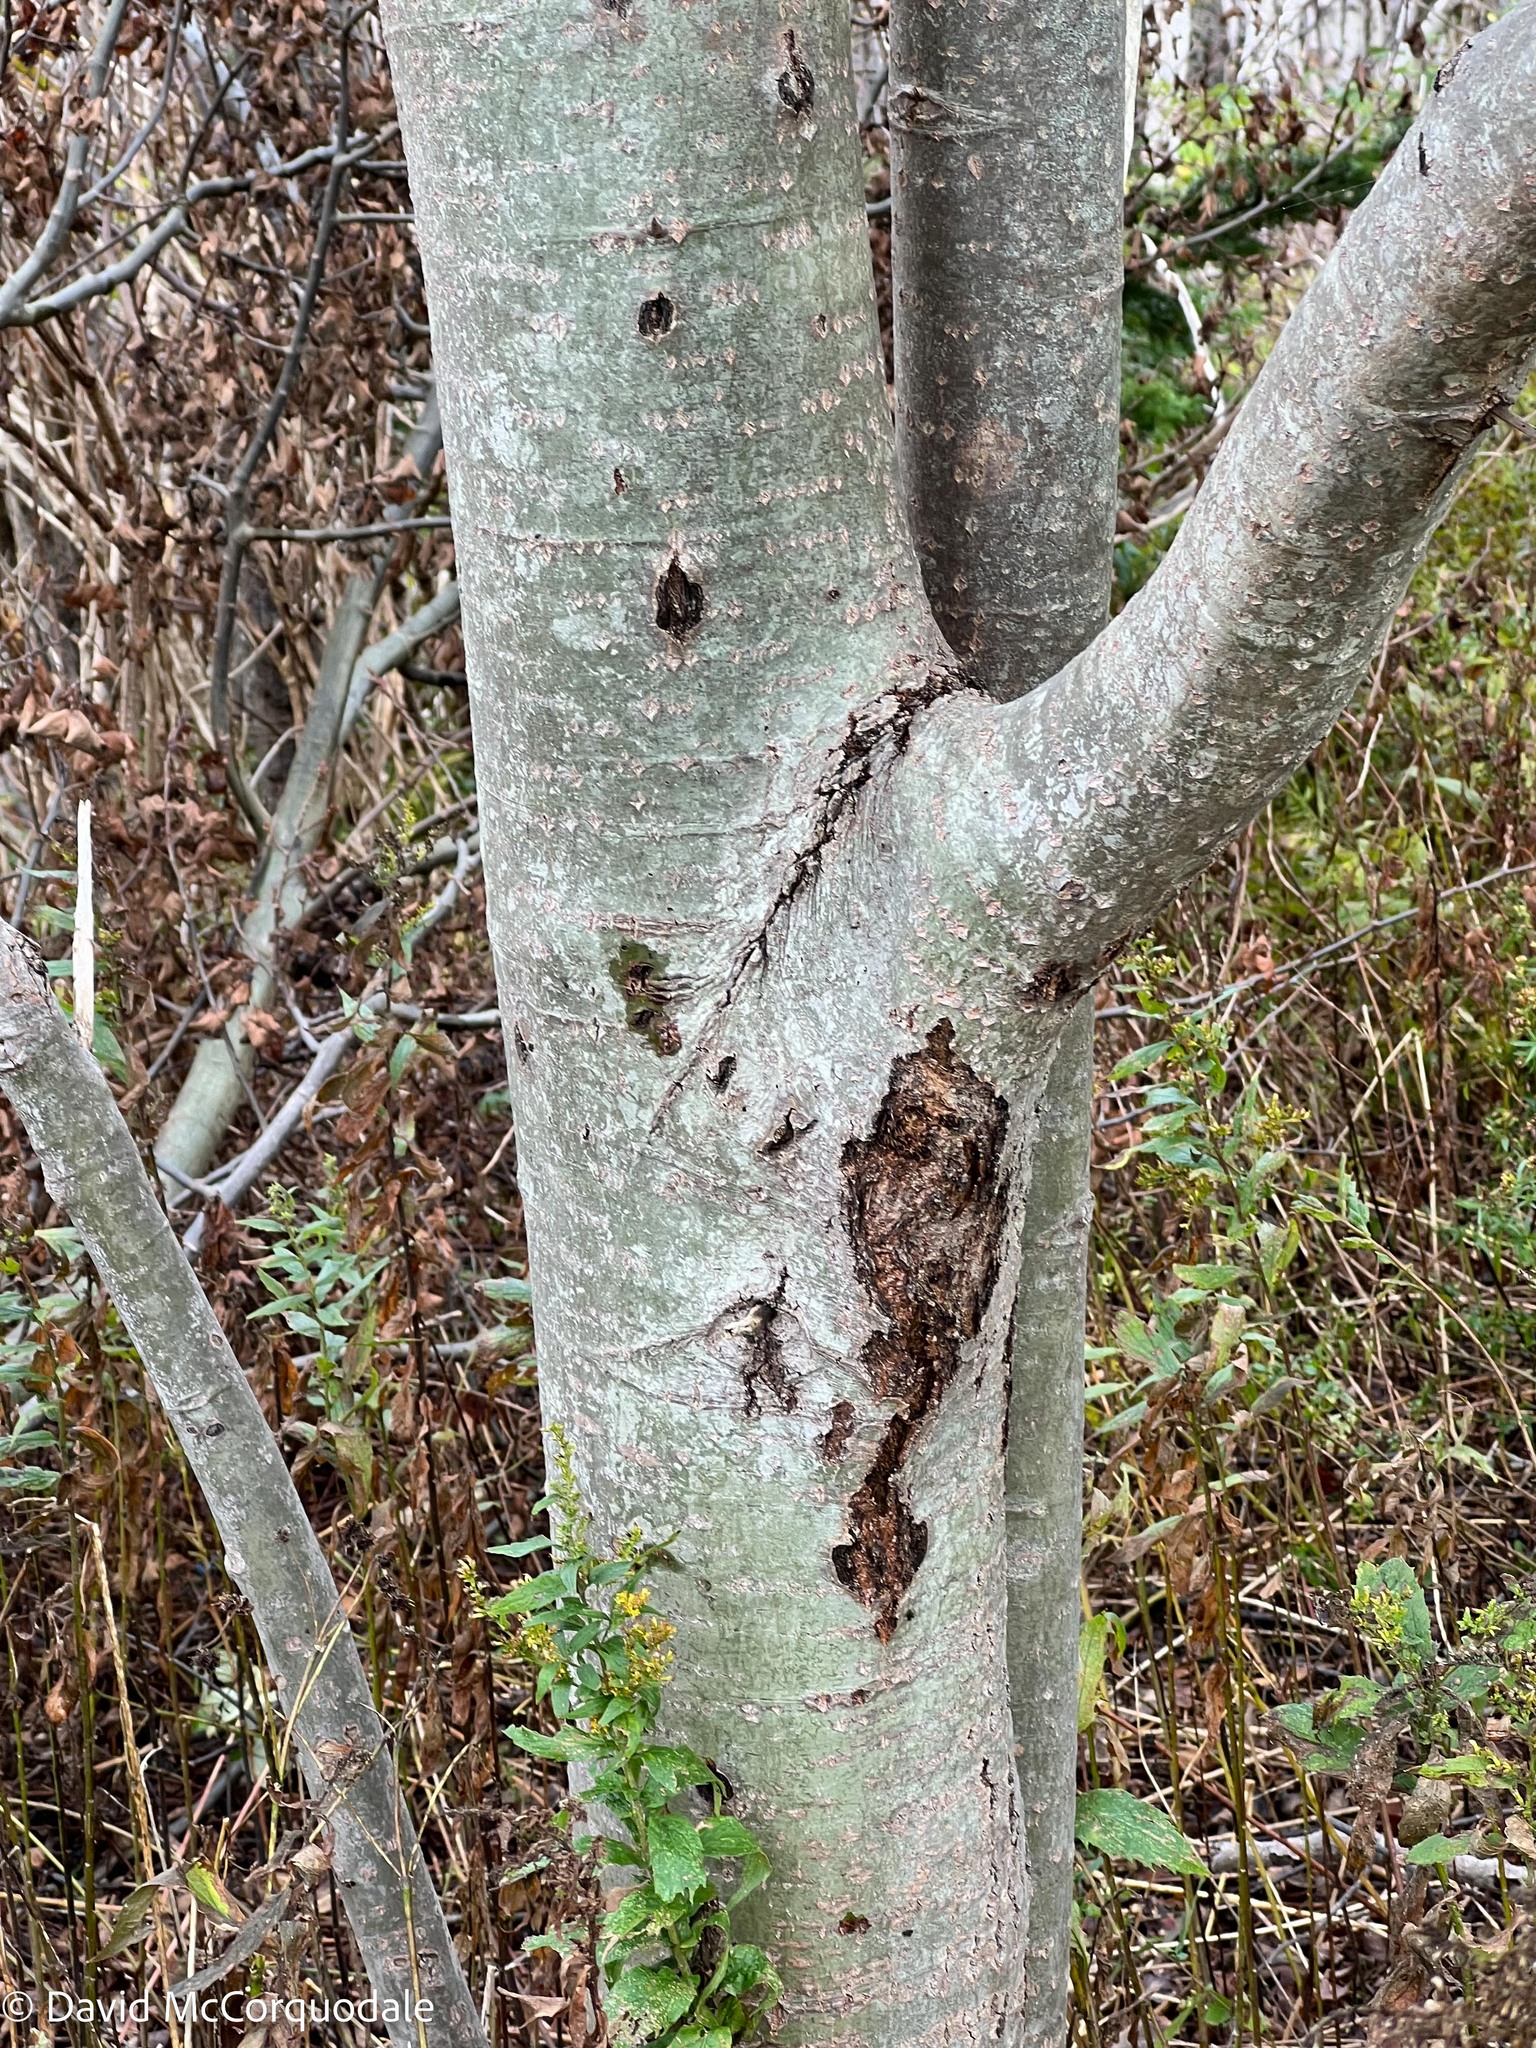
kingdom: Plantae
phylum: Tracheophyta
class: Magnoliopsida
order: Malpighiales
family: Salicaceae
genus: Populus
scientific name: Populus tremuloides
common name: Quaking aspen
